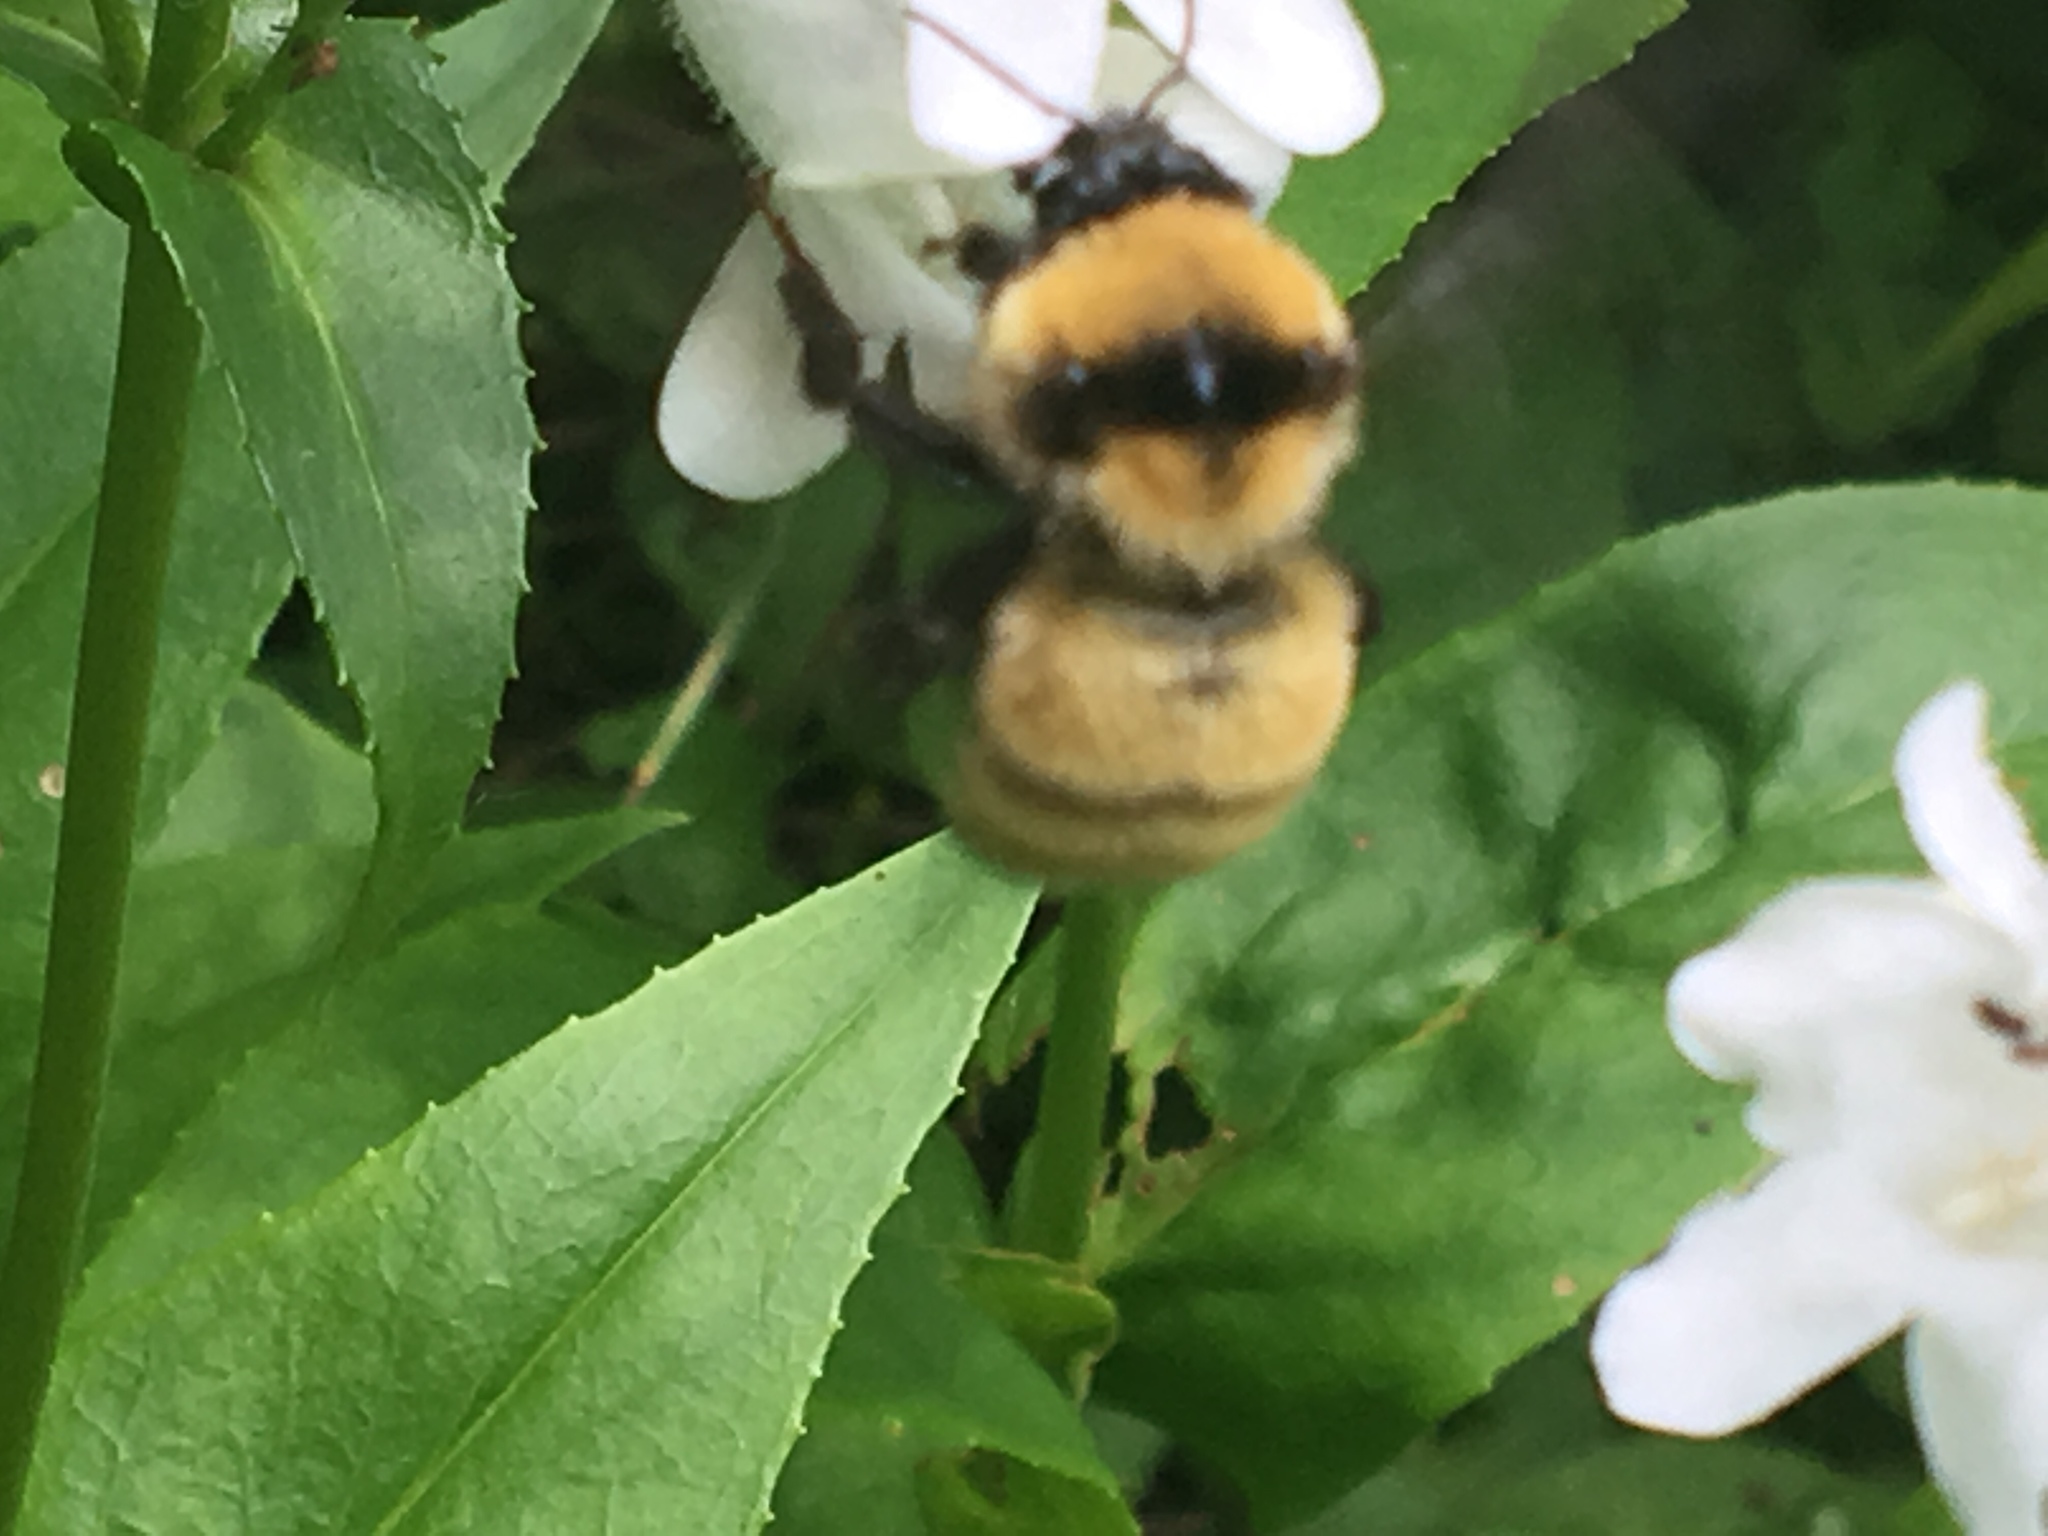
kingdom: Animalia
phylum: Arthropoda
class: Insecta
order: Hymenoptera
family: Apidae
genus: Bombus
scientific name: Bombus fervidus
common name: Yellow bumble bee
